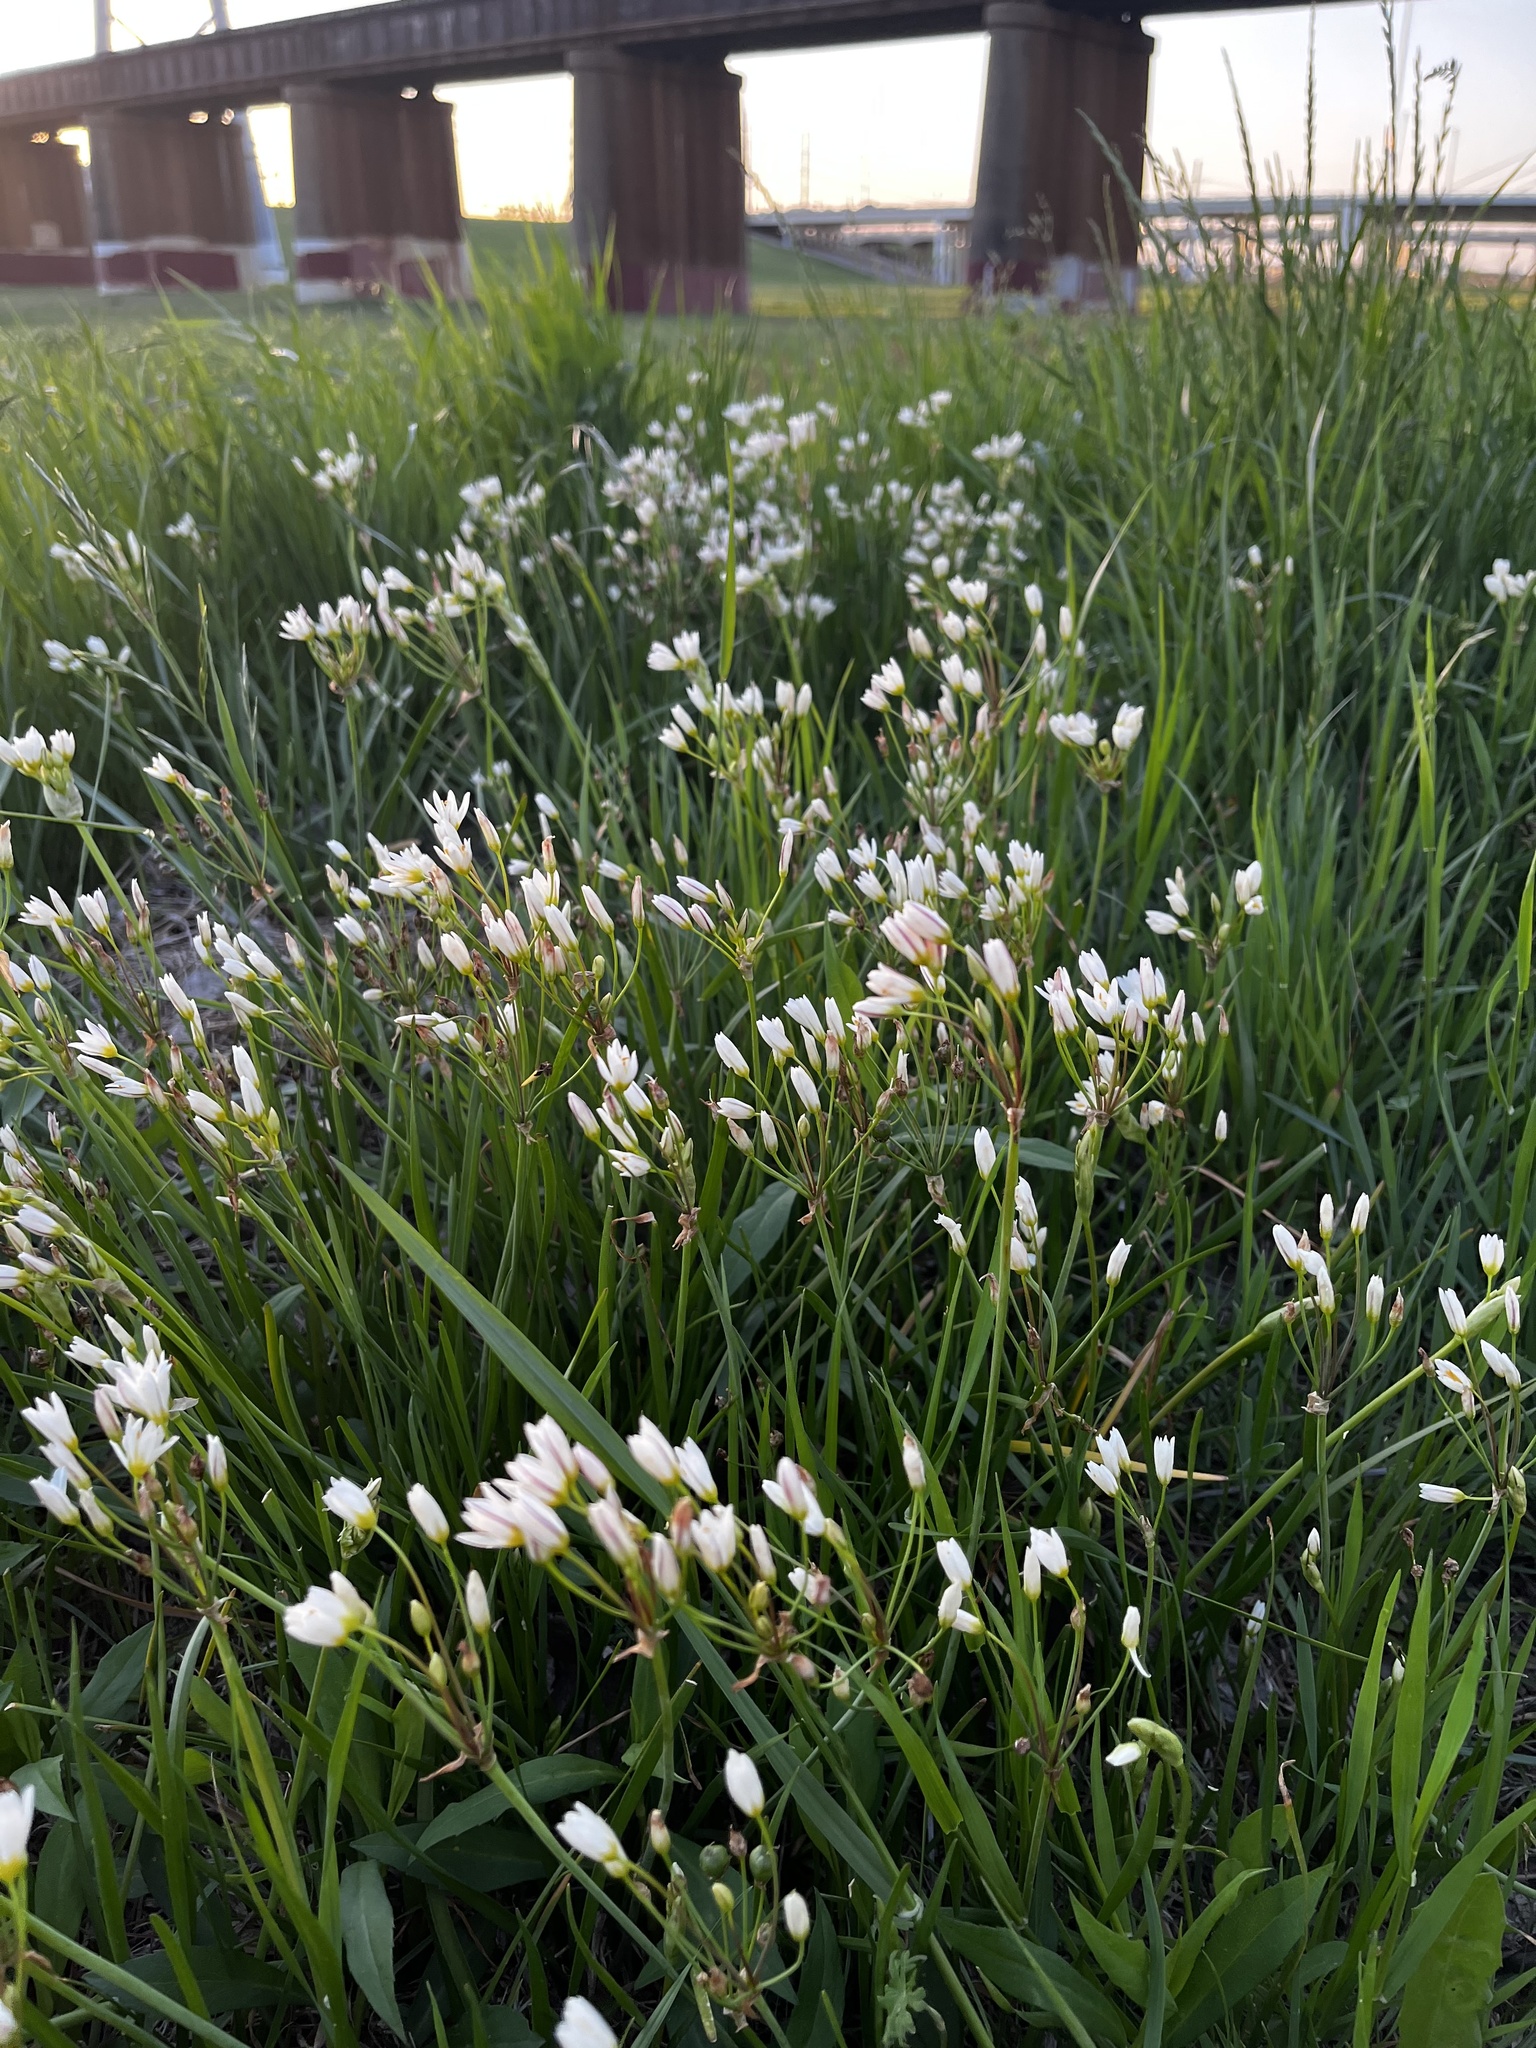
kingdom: Plantae
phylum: Tracheophyta
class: Liliopsida
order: Asparagales
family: Amaryllidaceae
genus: Nothoscordum
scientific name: Nothoscordum bivalve
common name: Crow-poison
